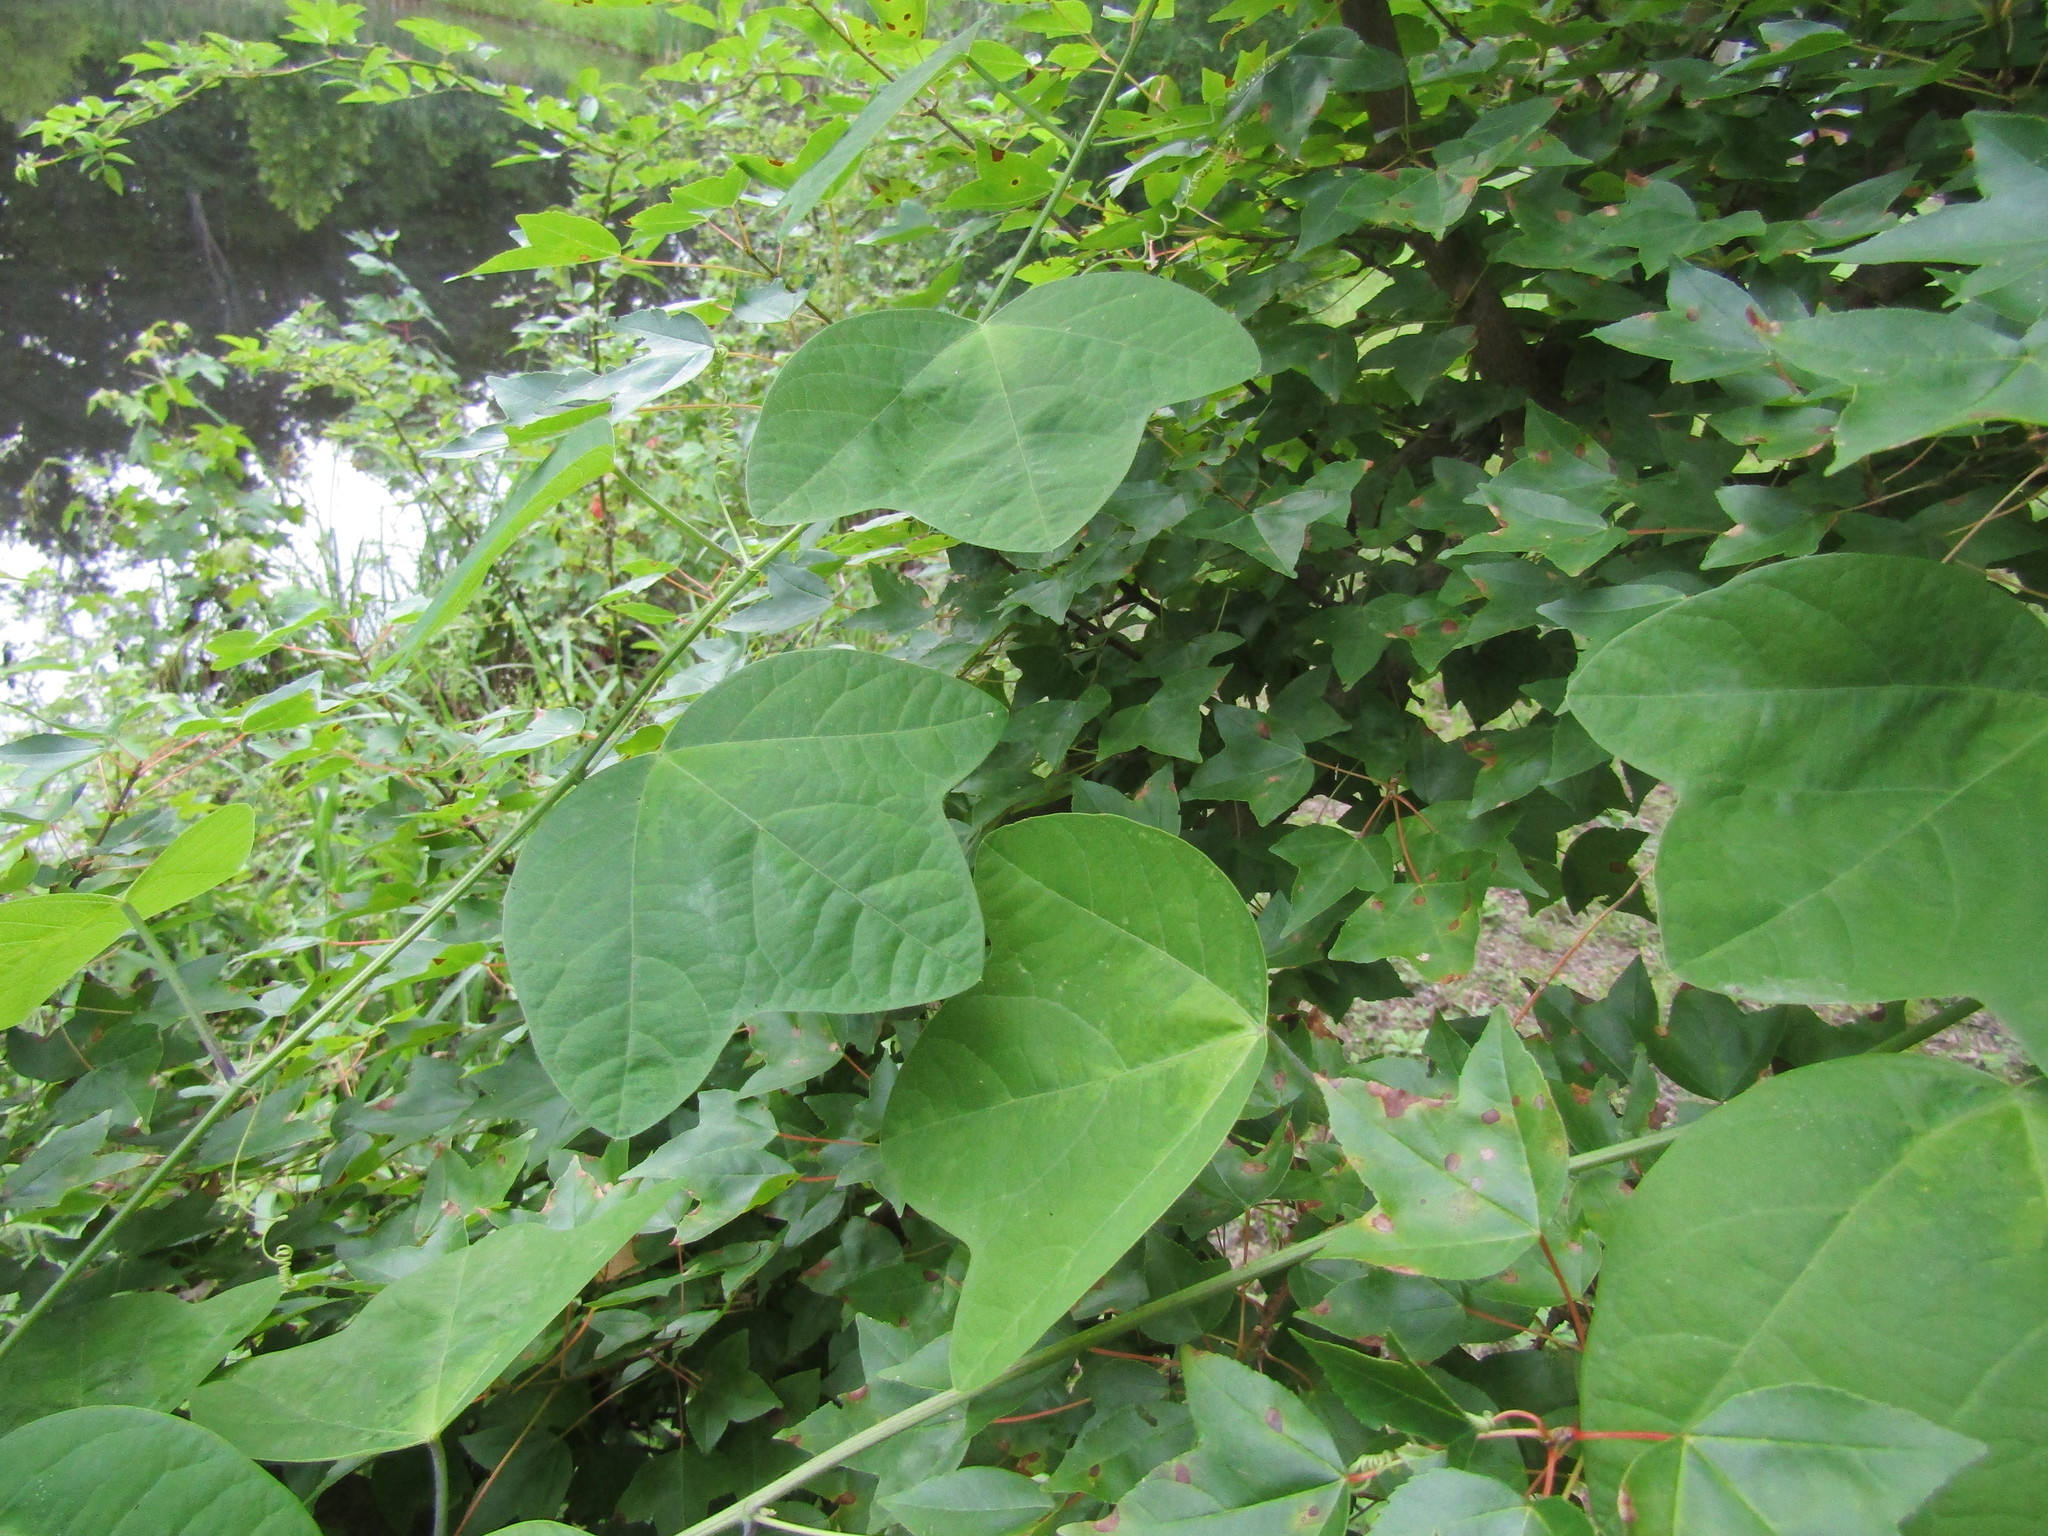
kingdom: Plantae
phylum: Tracheophyta
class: Magnoliopsida
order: Malpighiales
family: Passifloraceae
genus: Passiflora
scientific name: Passiflora lutea
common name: Yellow passionflower
